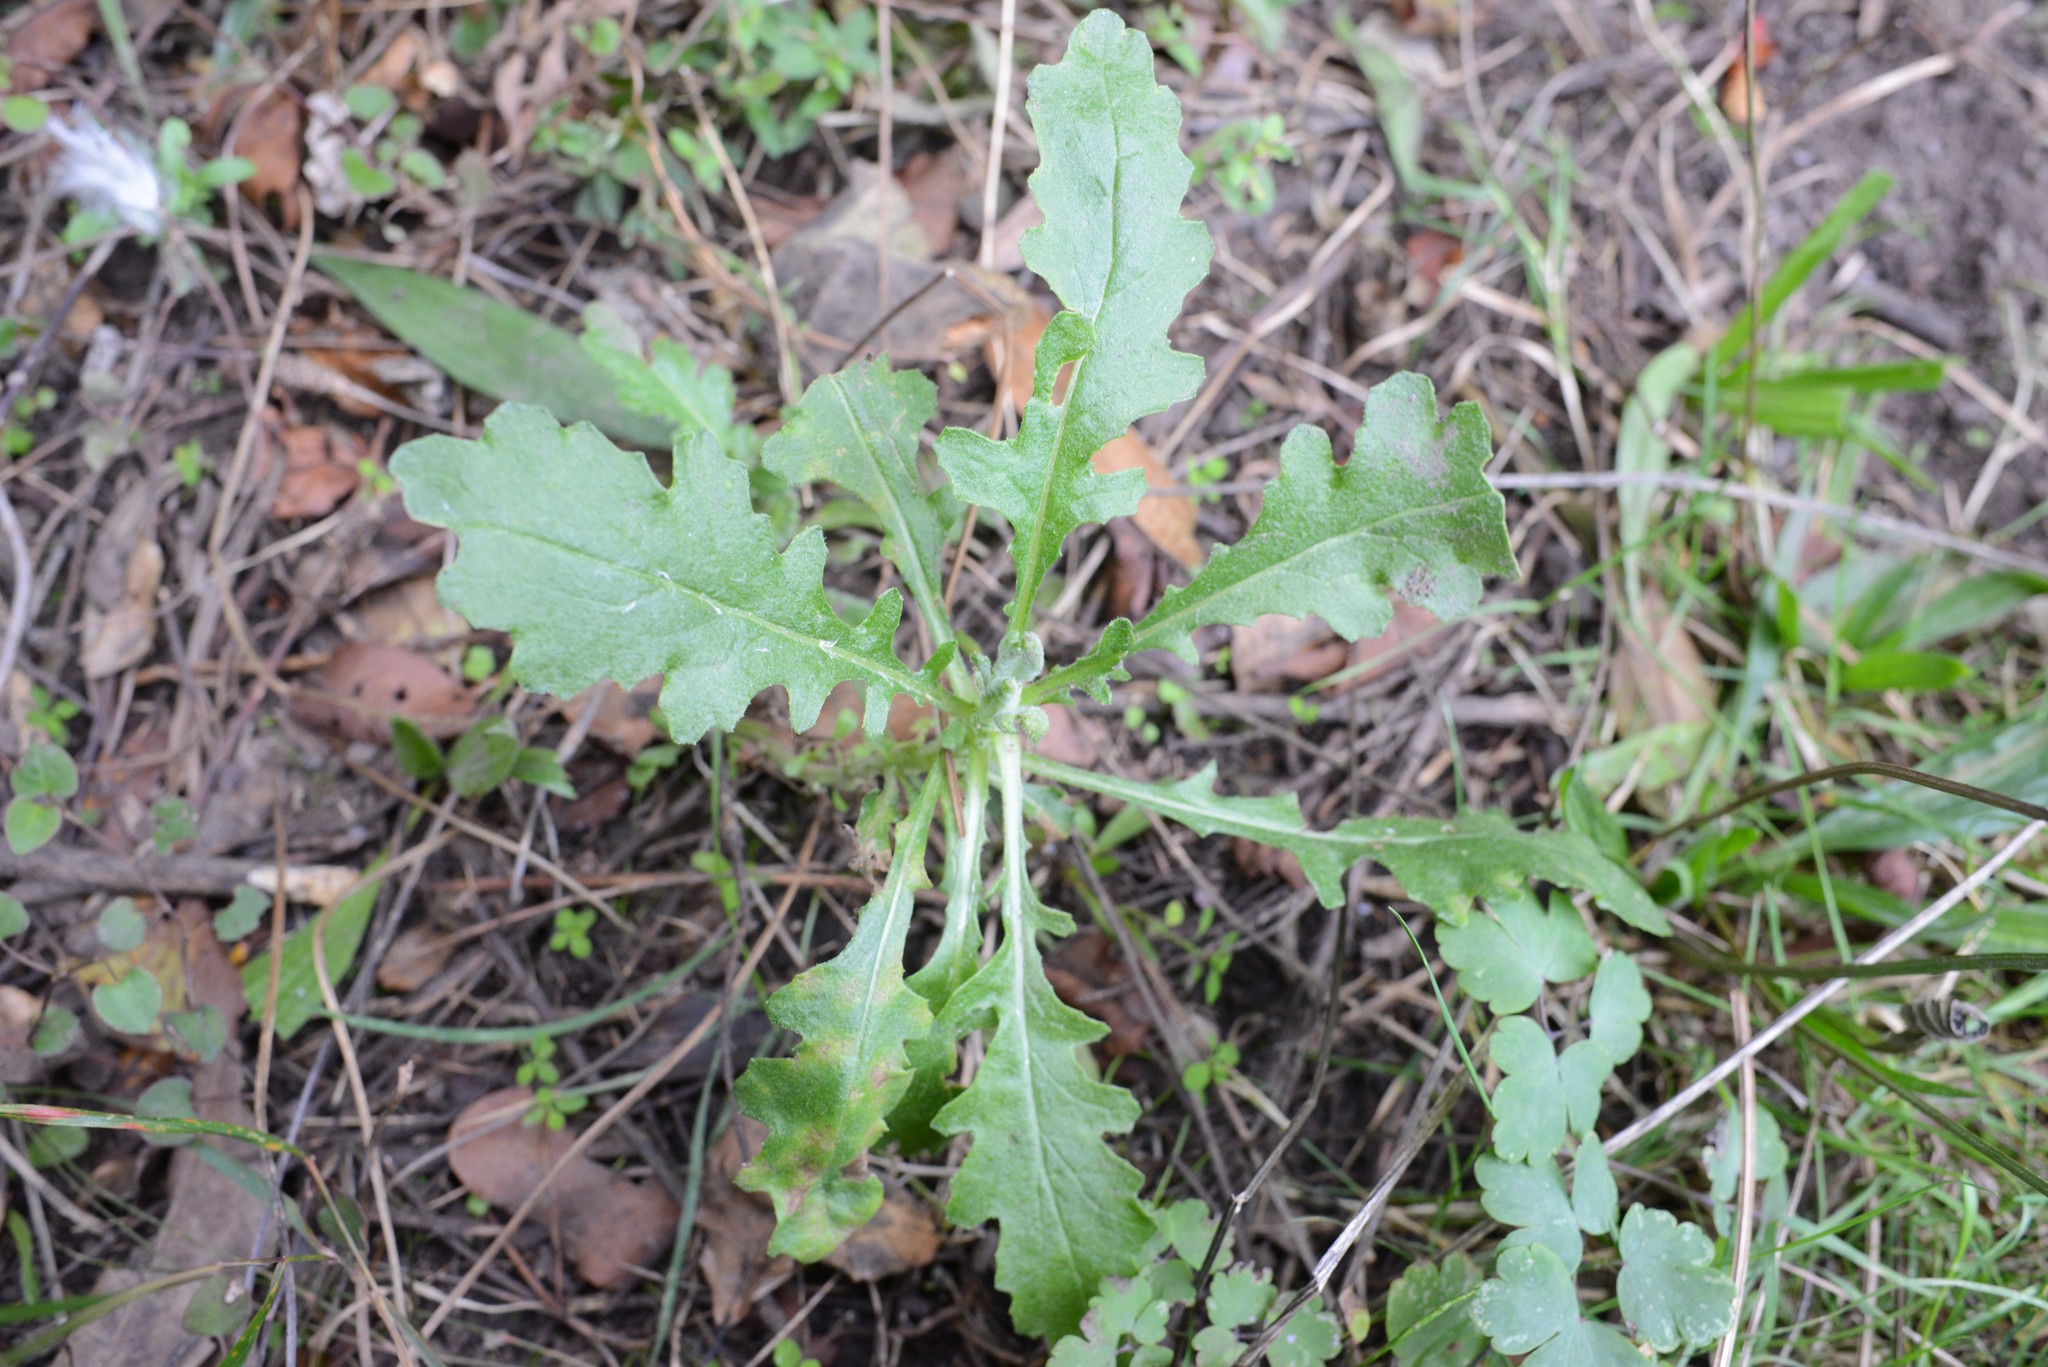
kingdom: Plantae
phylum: Tracheophyta
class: Magnoliopsida
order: Asterales
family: Asteraceae
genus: Senecio
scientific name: Senecio glomeratus
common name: Cutleaf burnweed
